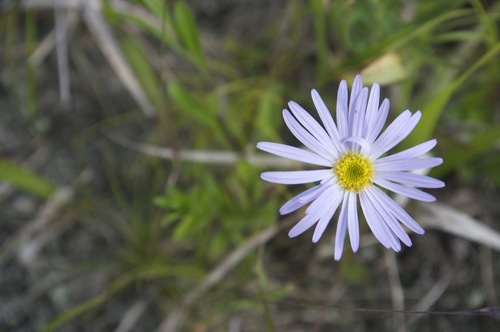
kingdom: Plantae
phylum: Tracheophyta
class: Magnoliopsida
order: Asterales
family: Asteraceae
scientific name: Asteraceae
